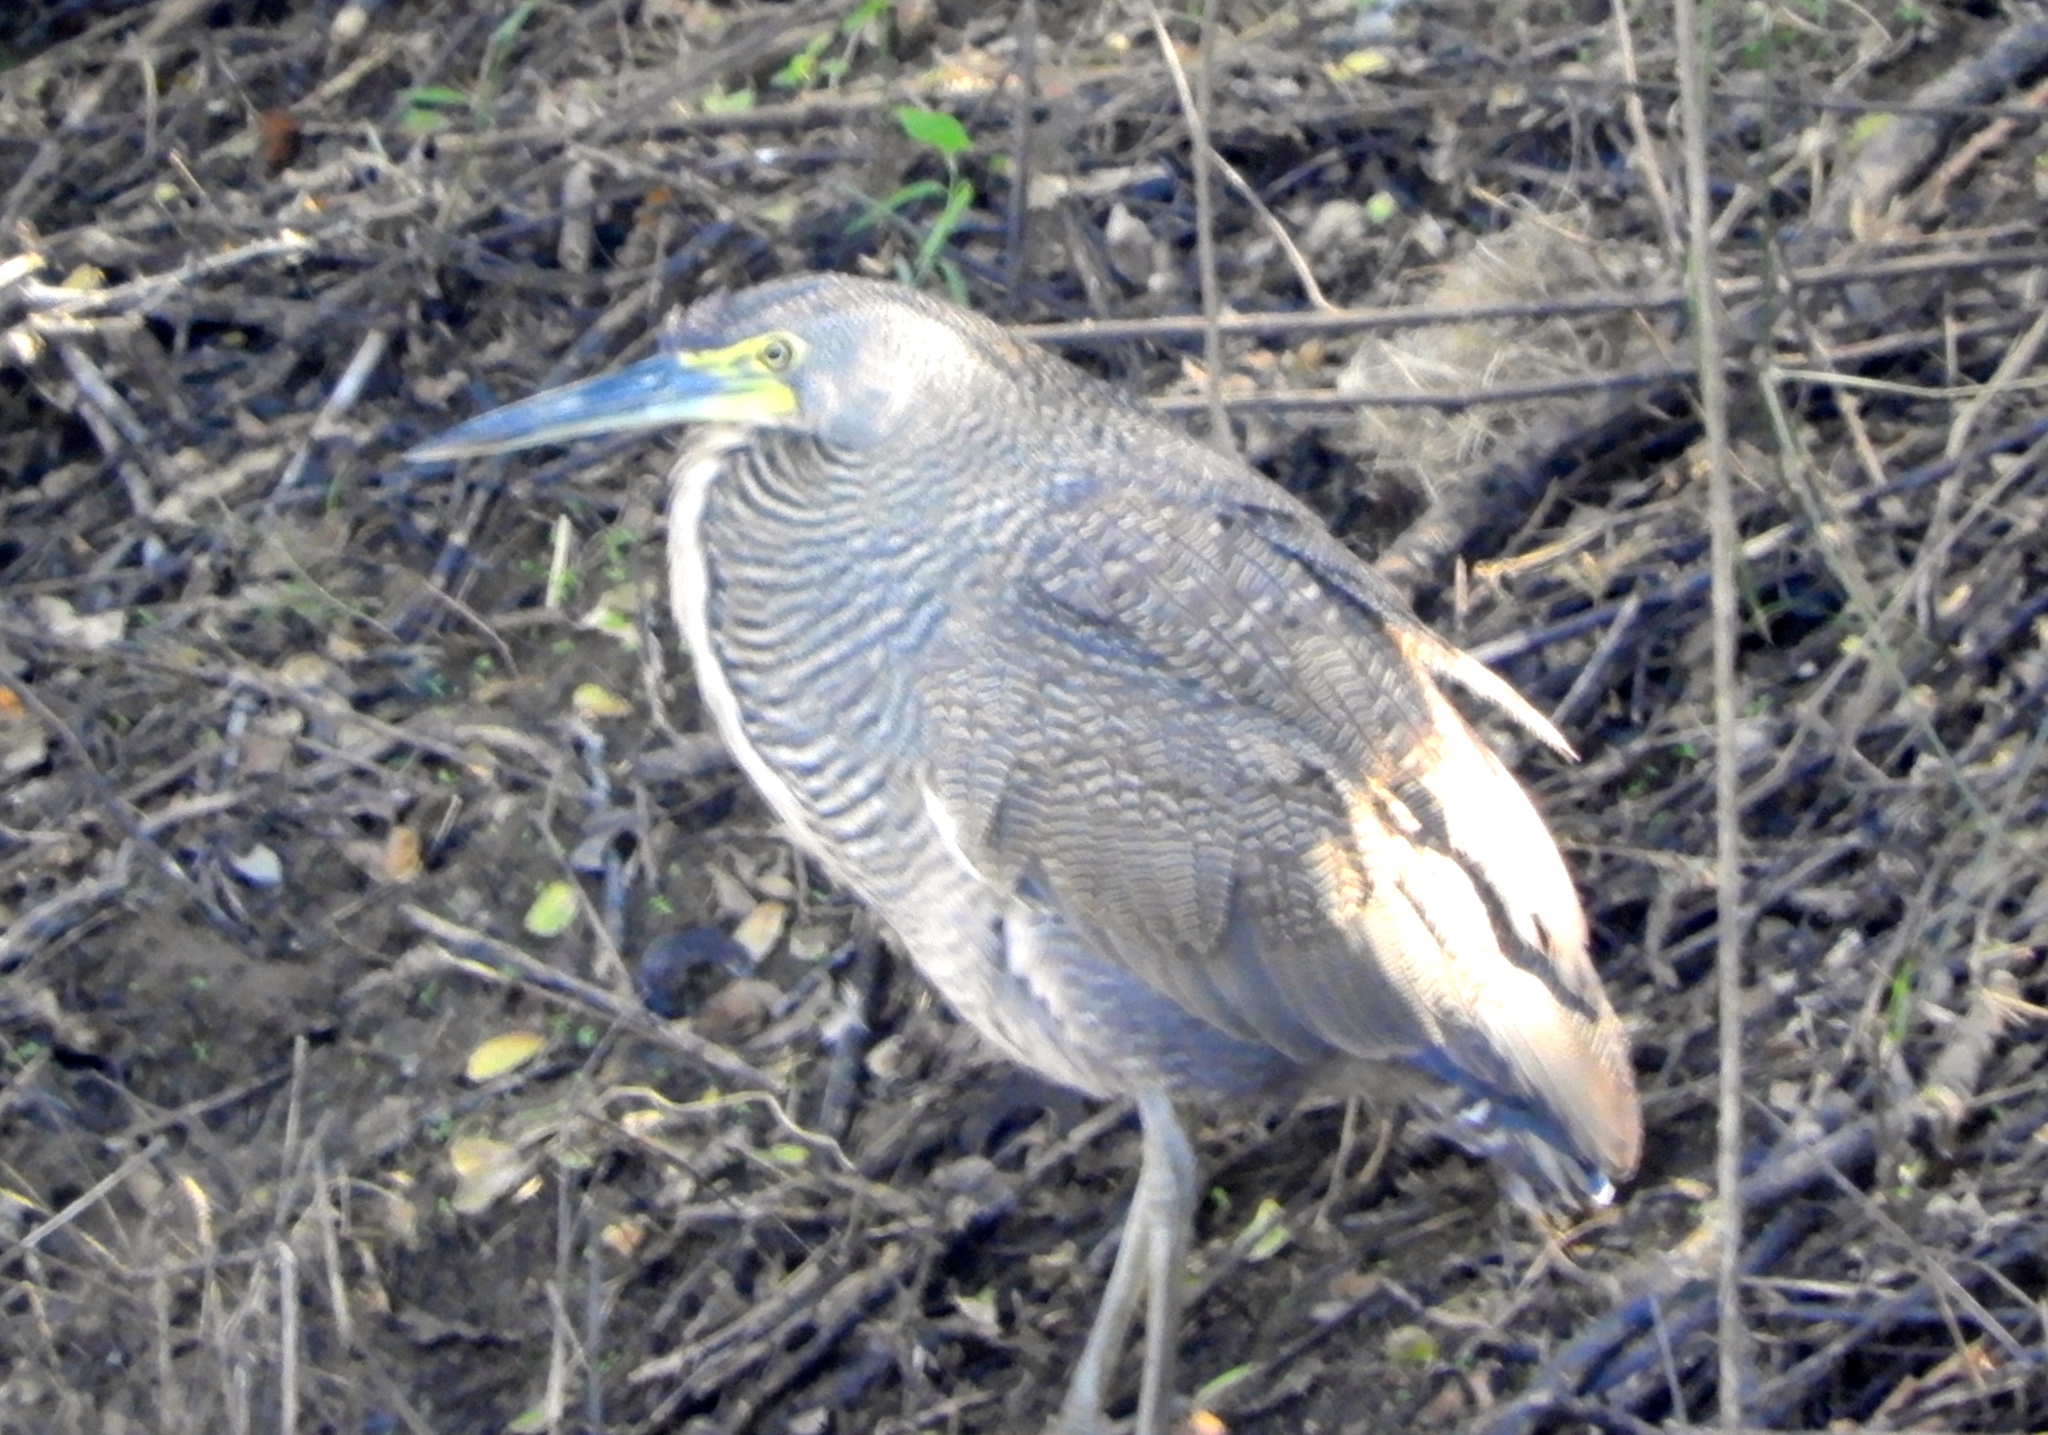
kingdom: Animalia
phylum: Chordata
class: Aves
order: Pelecaniformes
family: Ardeidae
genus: Tigrisoma
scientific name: Tigrisoma mexicanum
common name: Bare-throated tiger-heron
